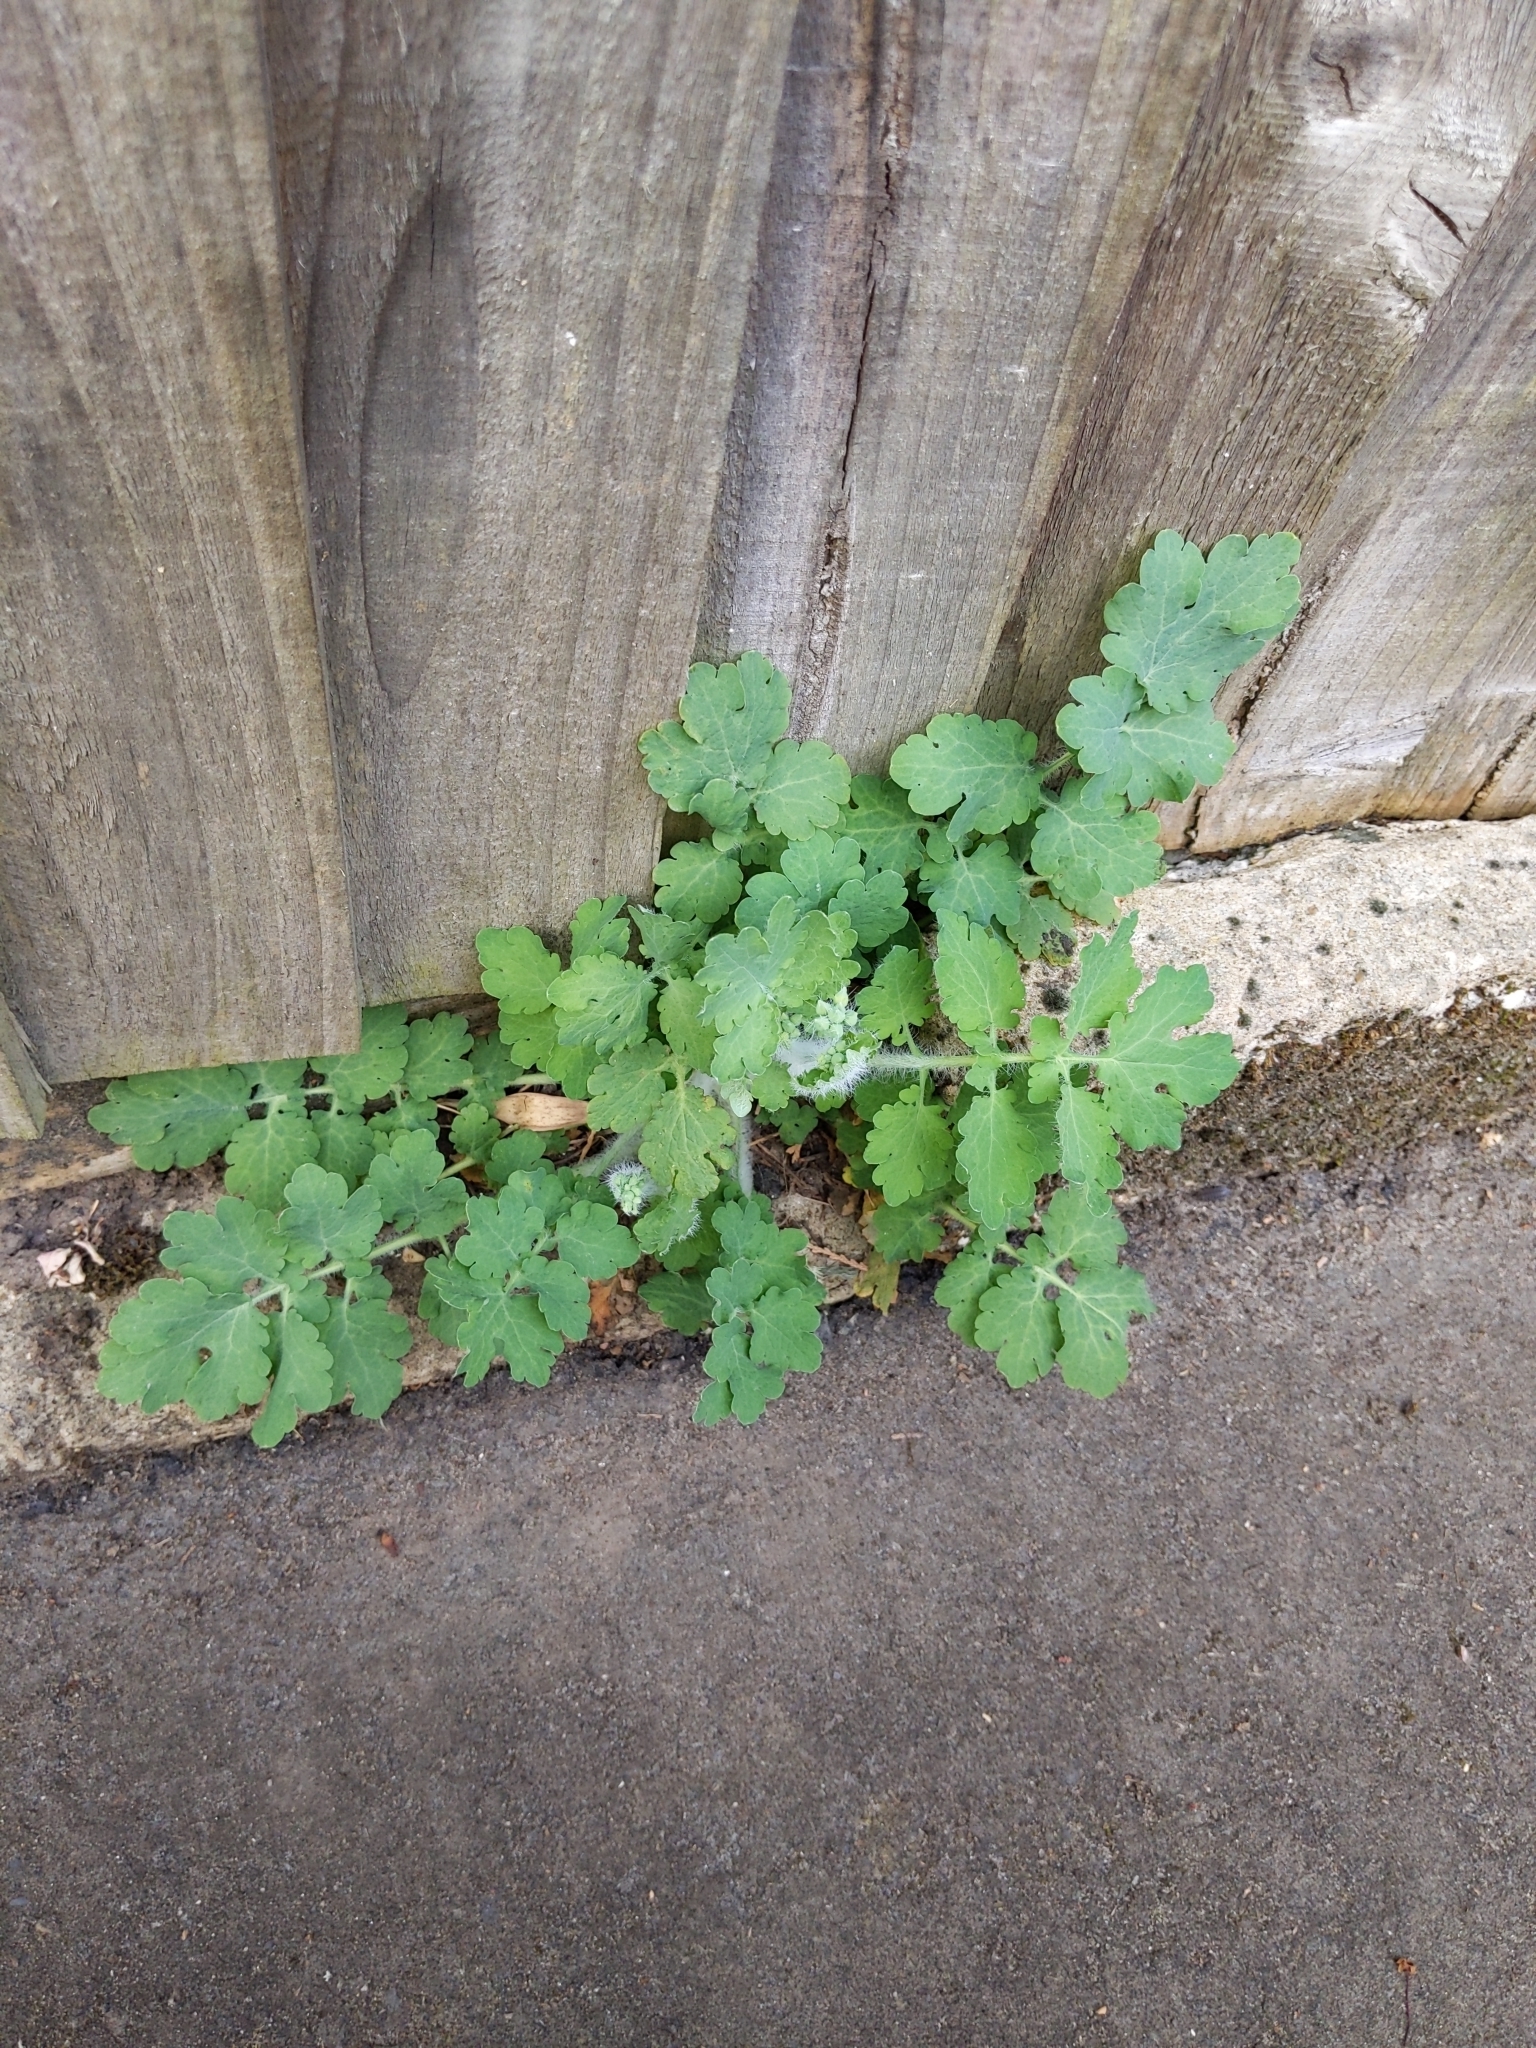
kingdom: Plantae
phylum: Tracheophyta
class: Magnoliopsida
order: Ranunculales
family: Papaveraceae
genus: Chelidonium
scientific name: Chelidonium majus
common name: Greater celandine
